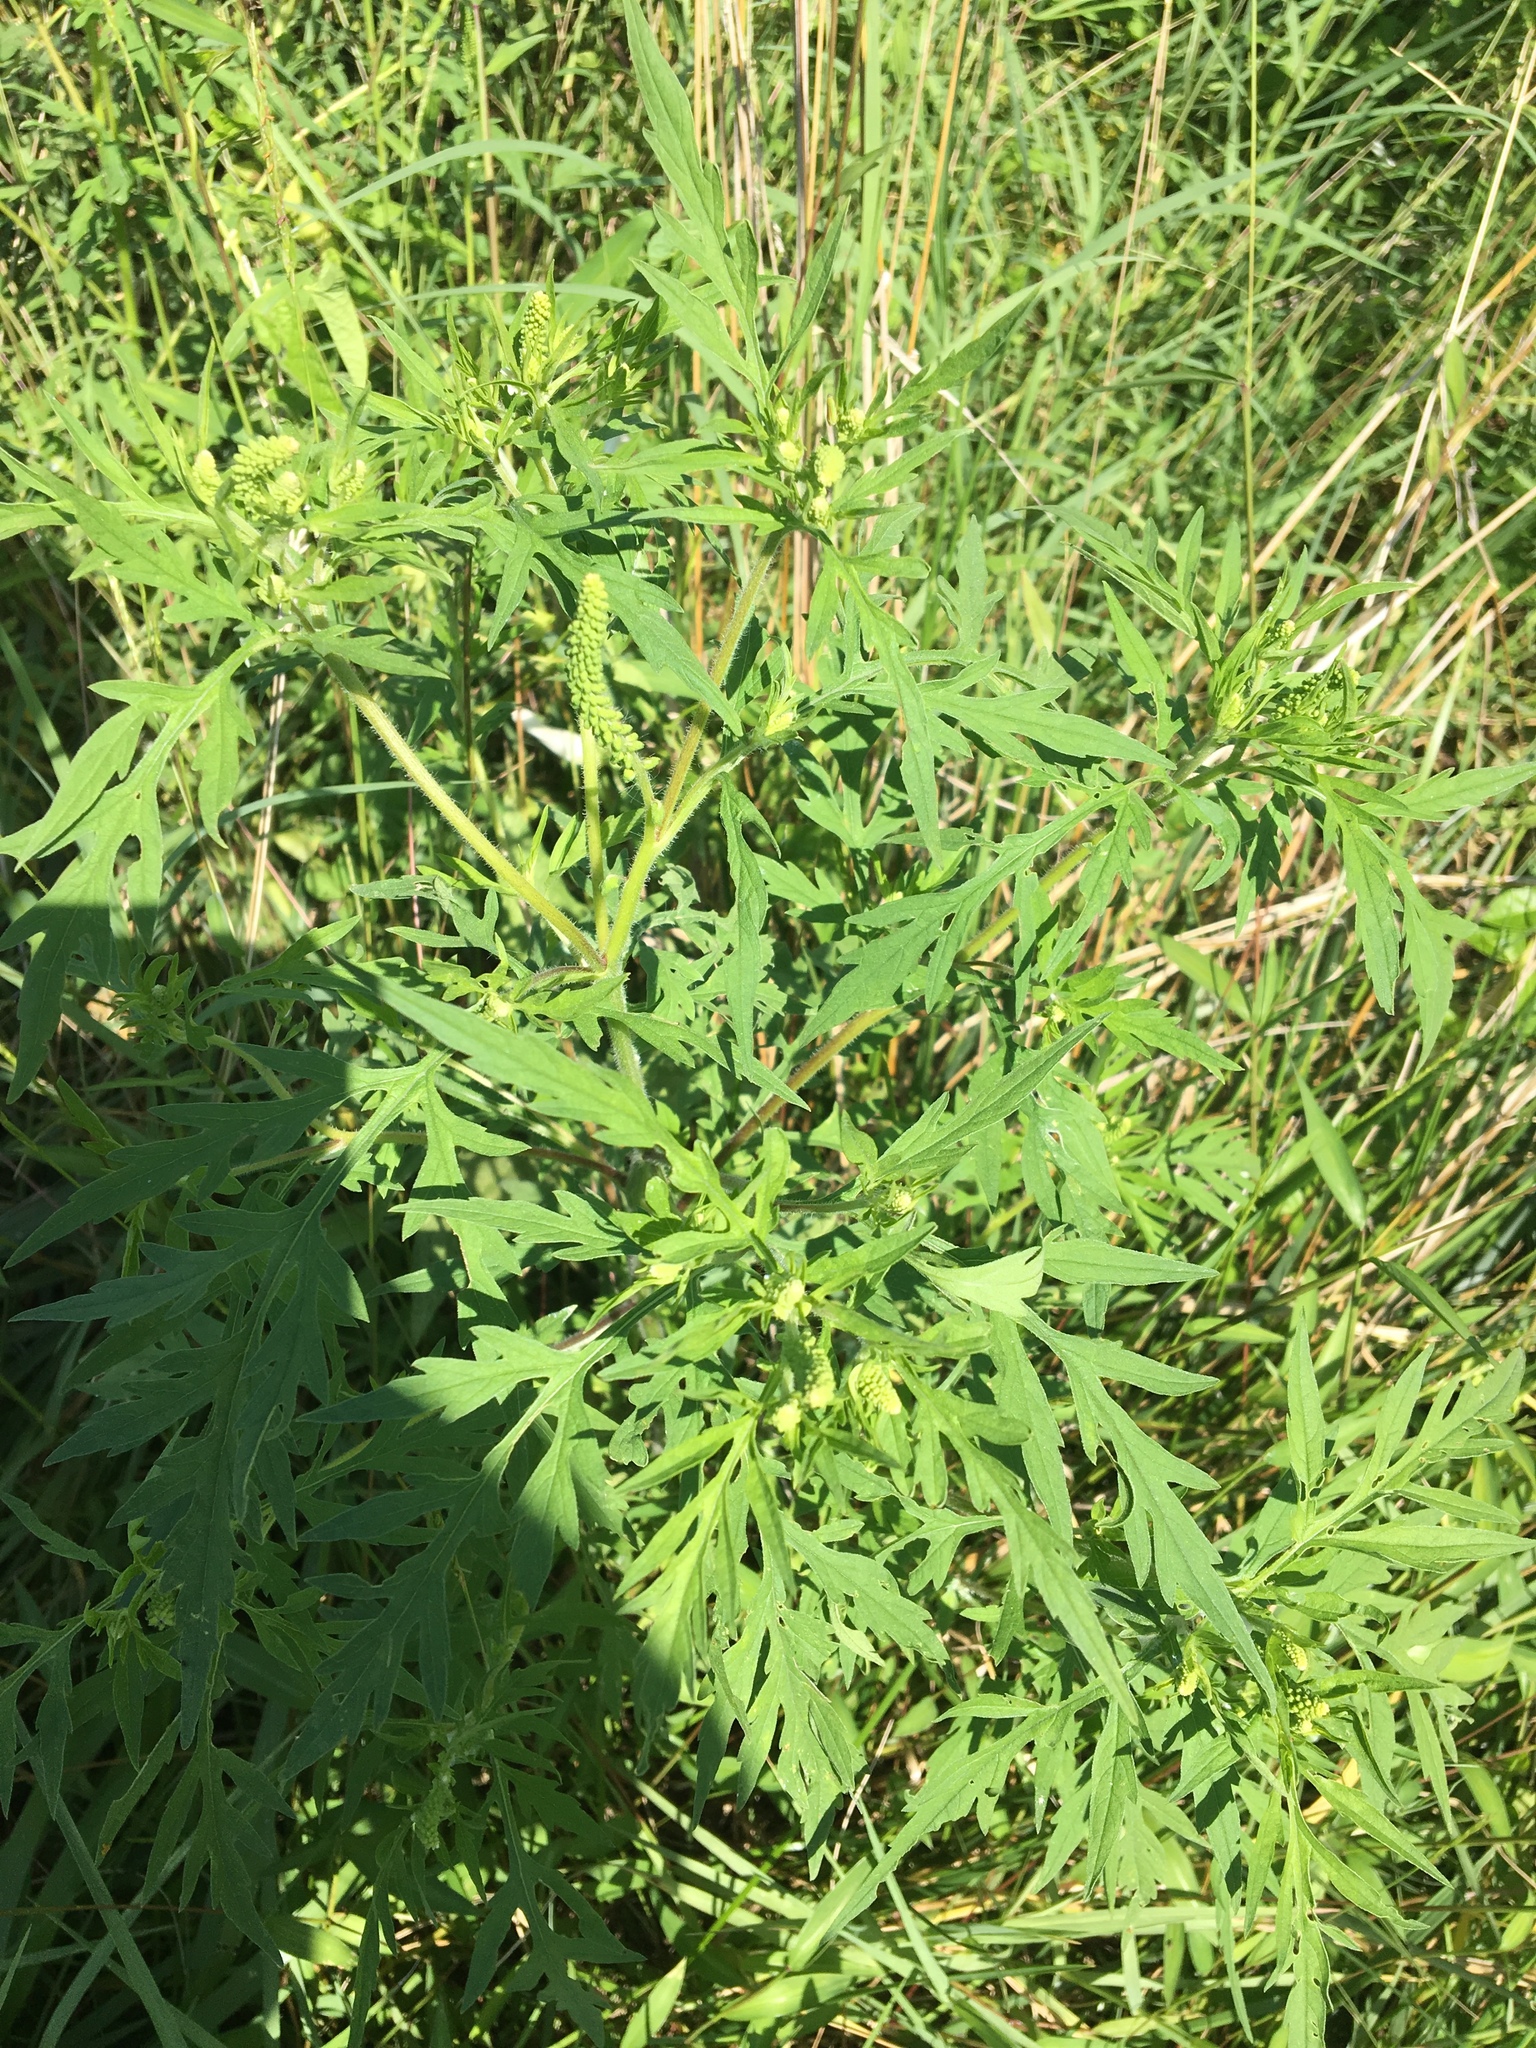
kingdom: Plantae
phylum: Tracheophyta
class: Magnoliopsida
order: Asterales
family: Asteraceae
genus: Ambrosia
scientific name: Ambrosia artemisiifolia
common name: Annual ragweed
